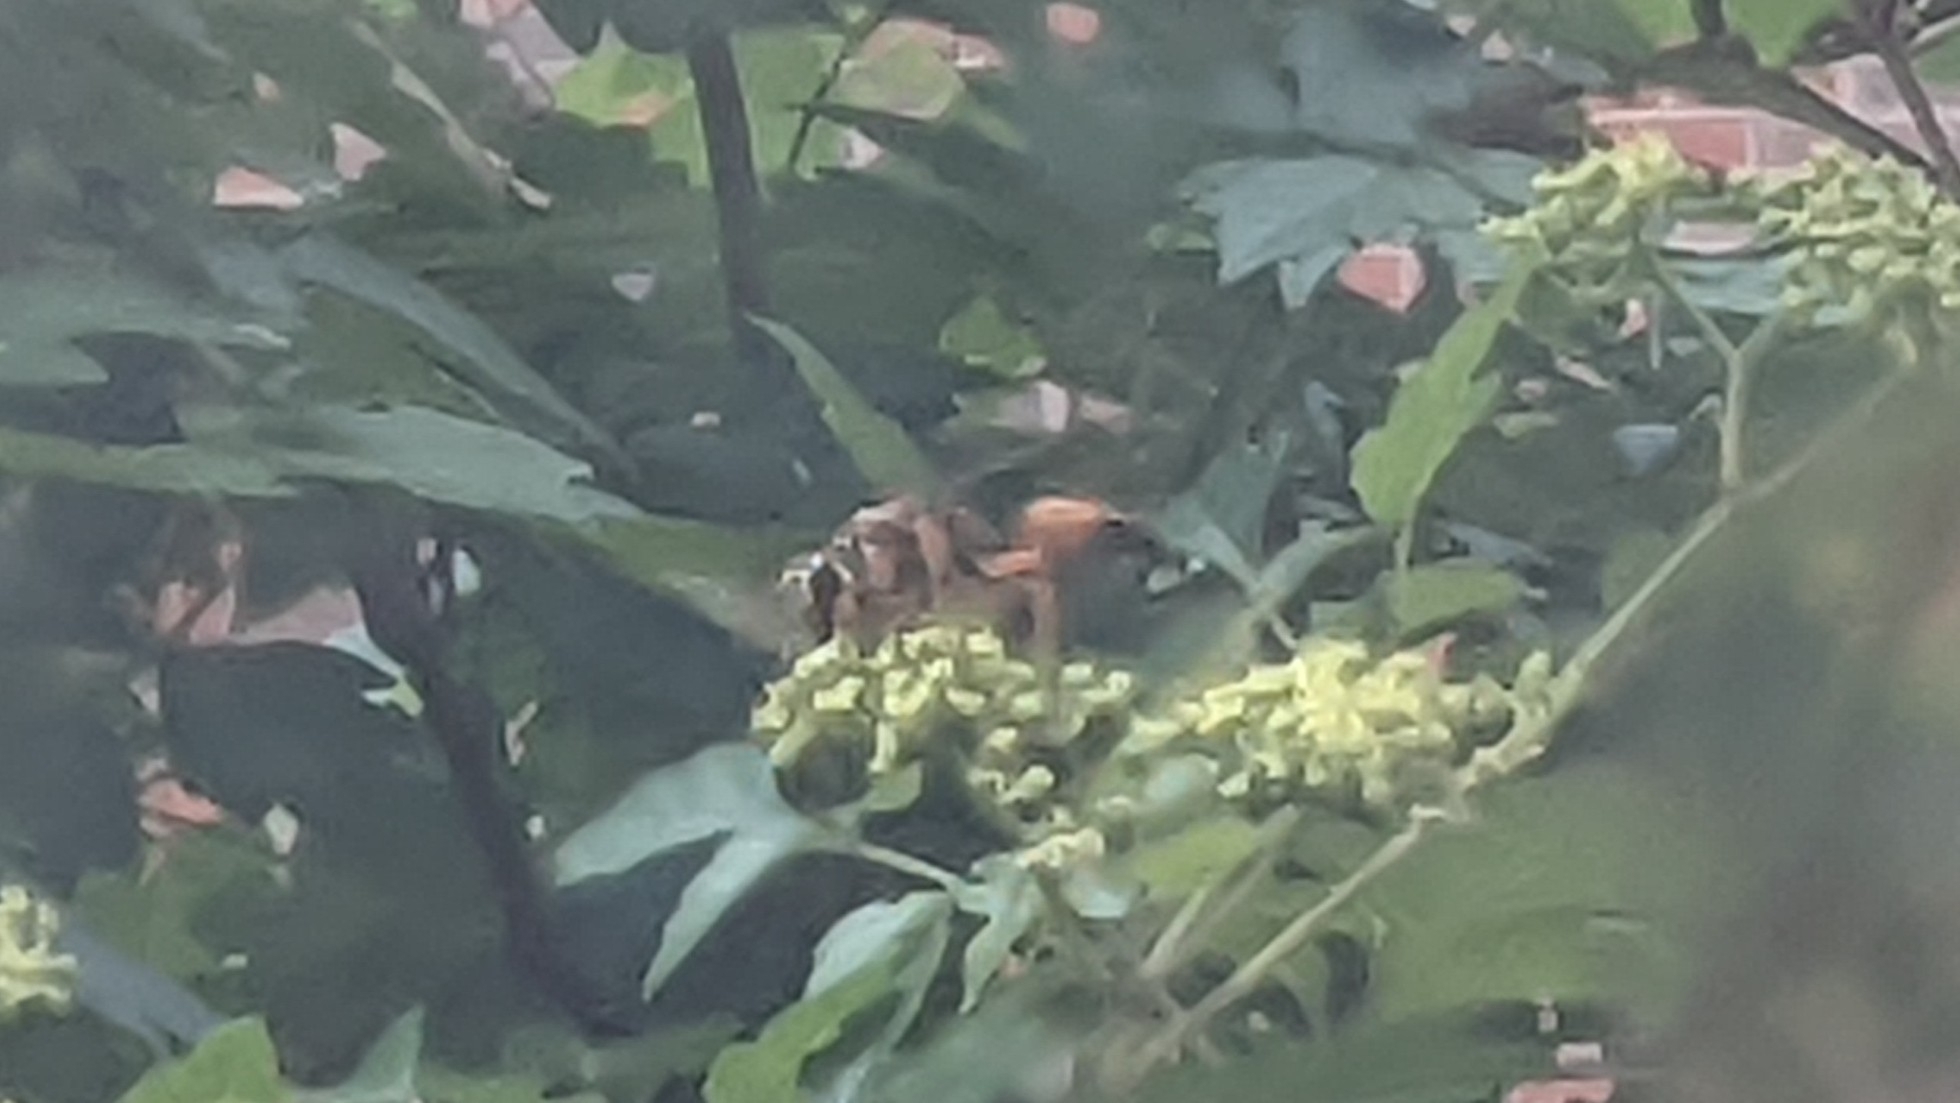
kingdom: Animalia
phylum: Arthropoda
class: Insecta
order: Hymenoptera
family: Sphecidae
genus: Sphex
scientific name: Sphex ichneumoneus
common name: Great golden digger wasp
